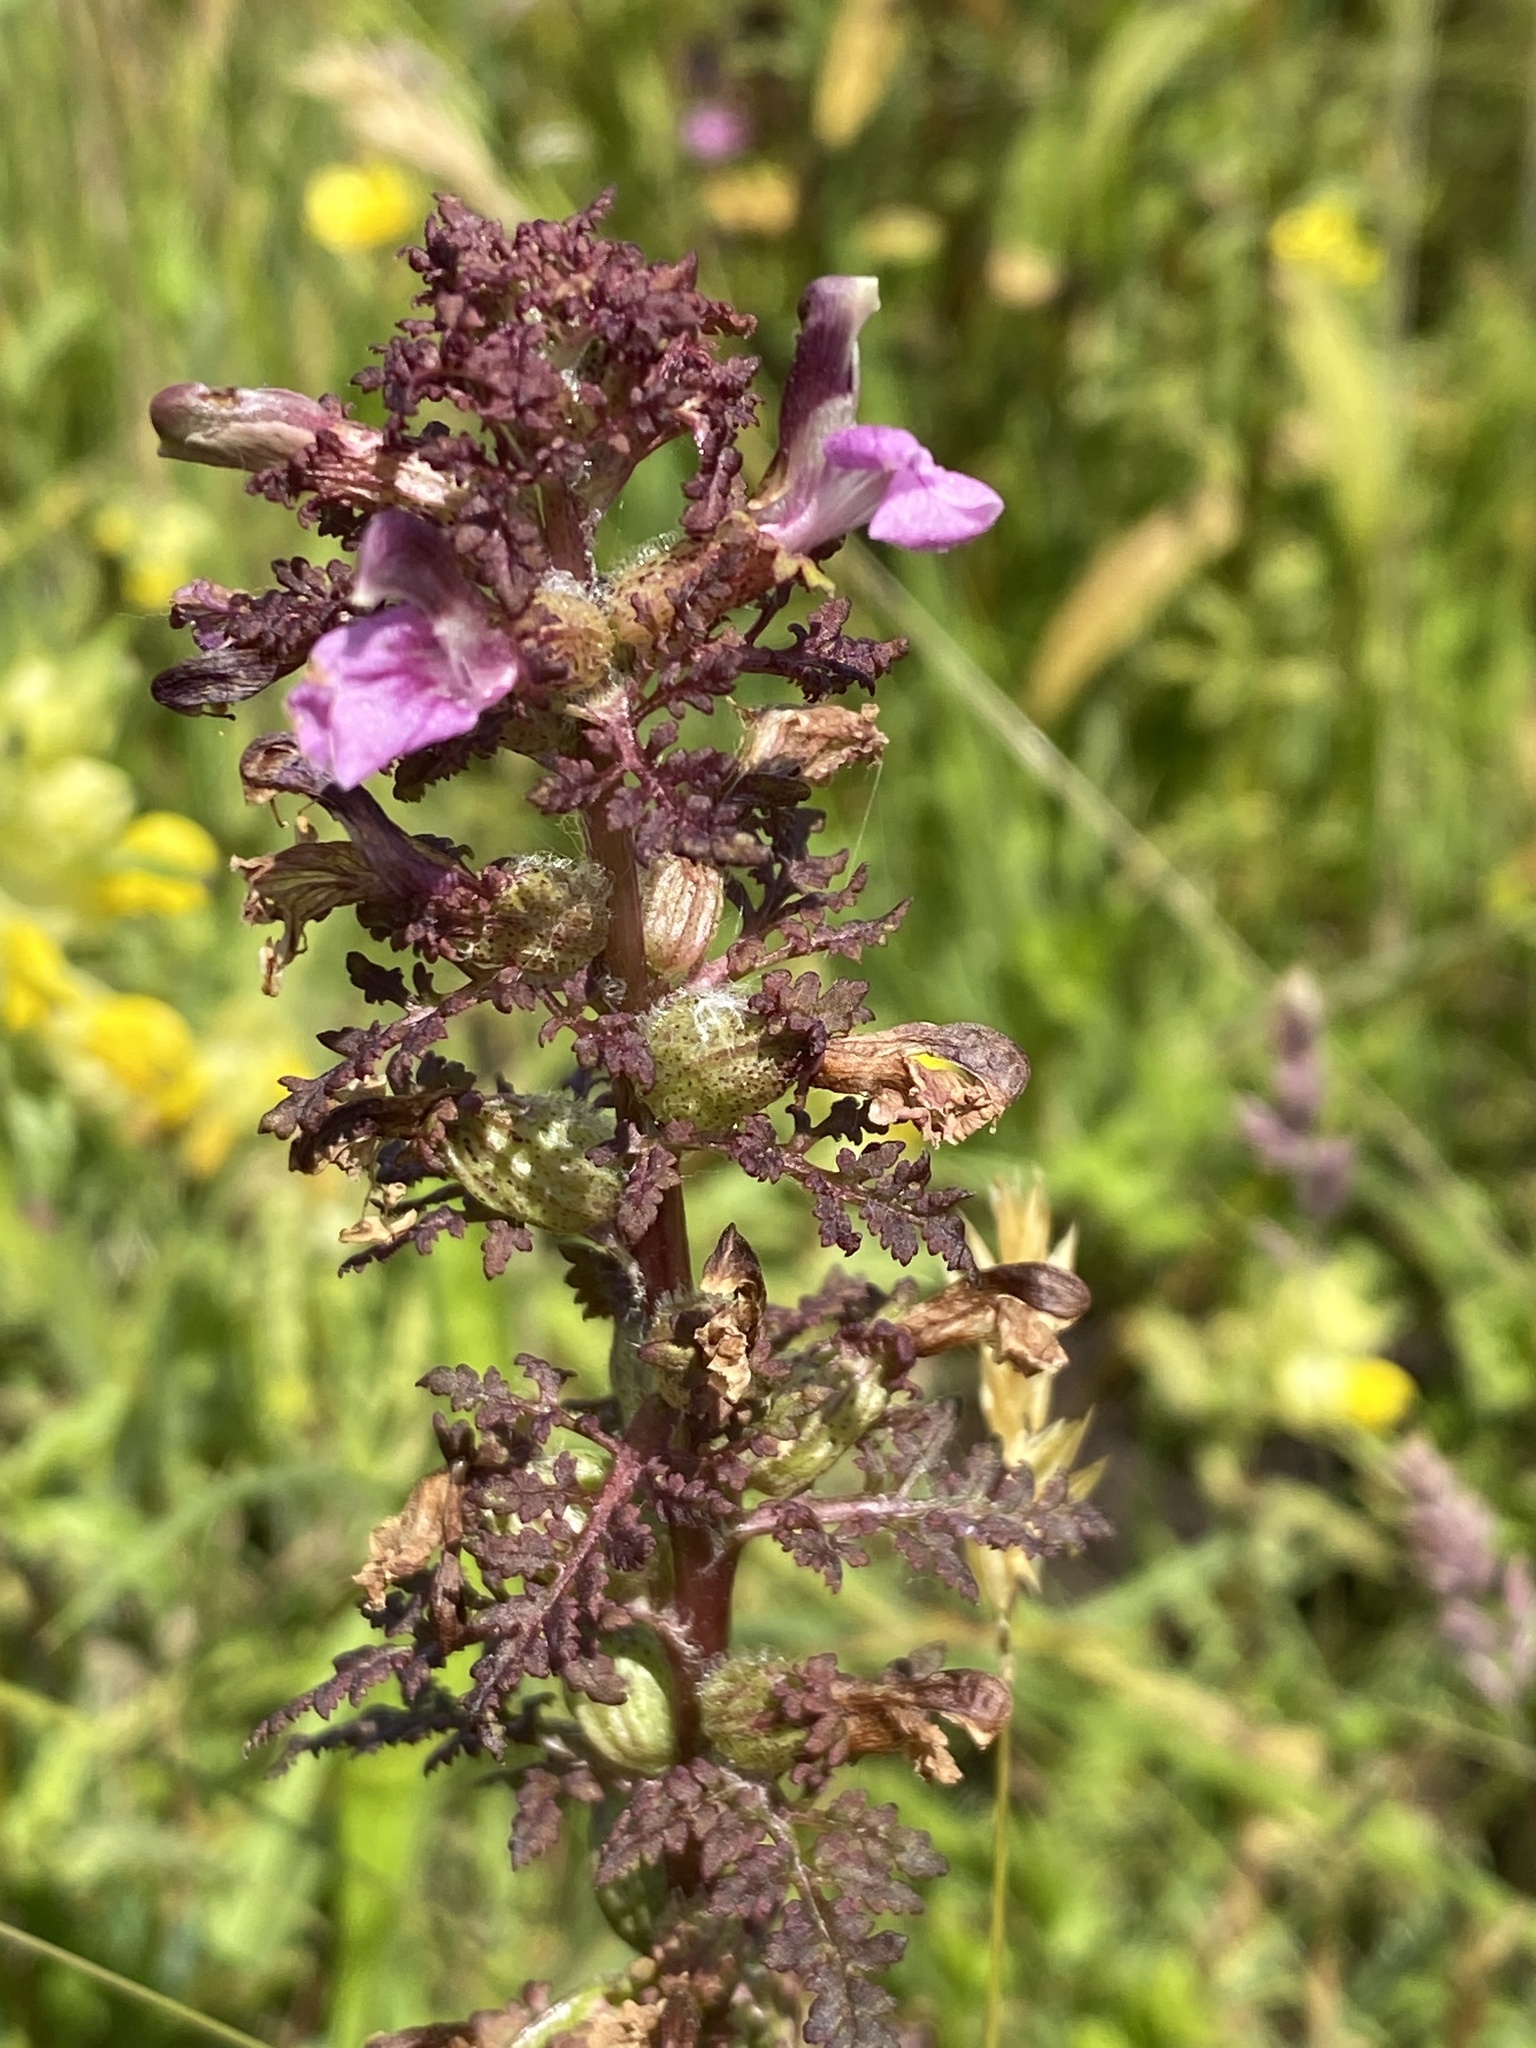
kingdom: Plantae
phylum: Tracheophyta
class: Magnoliopsida
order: Lamiales
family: Orobanchaceae
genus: Pedicularis
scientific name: Pedicularis palustris
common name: Marsh lousewort
